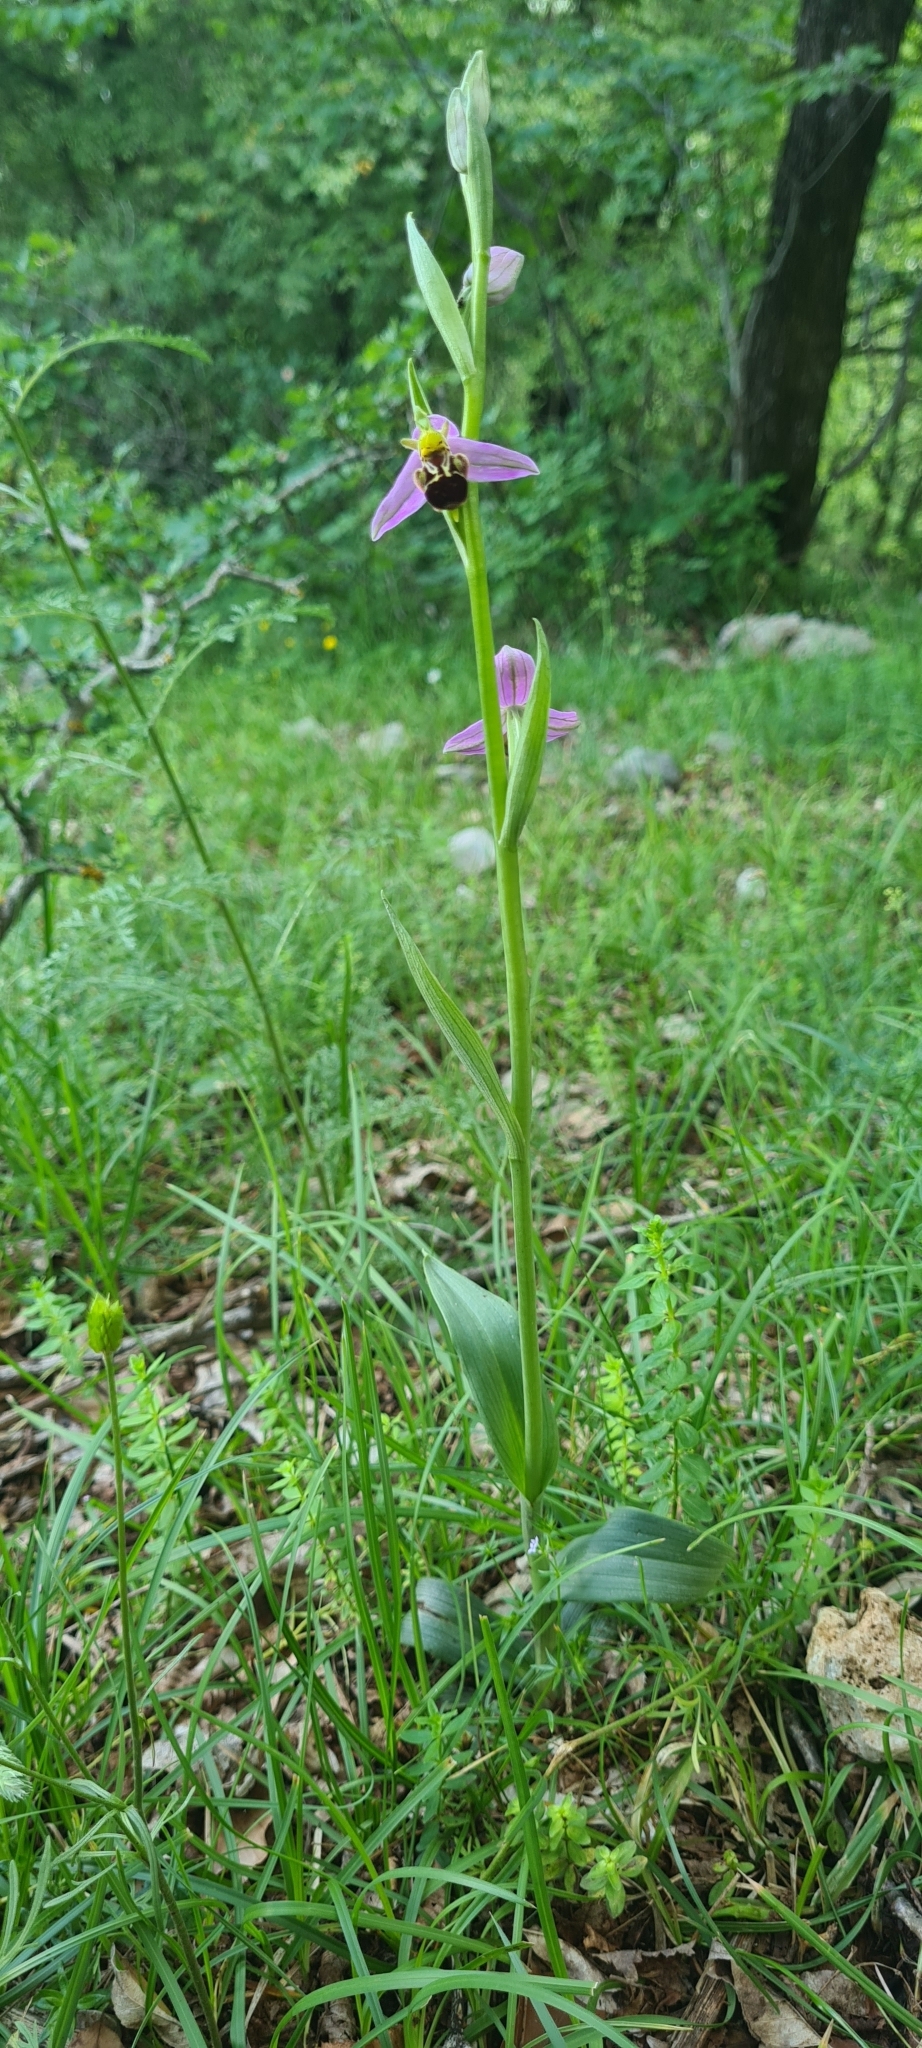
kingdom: Plantae
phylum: Tracheophyta
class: Liliopsida
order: Asparagales
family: Orchidaceae
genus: Ophrys
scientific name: Ophrys apifera
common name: Bee orchid
